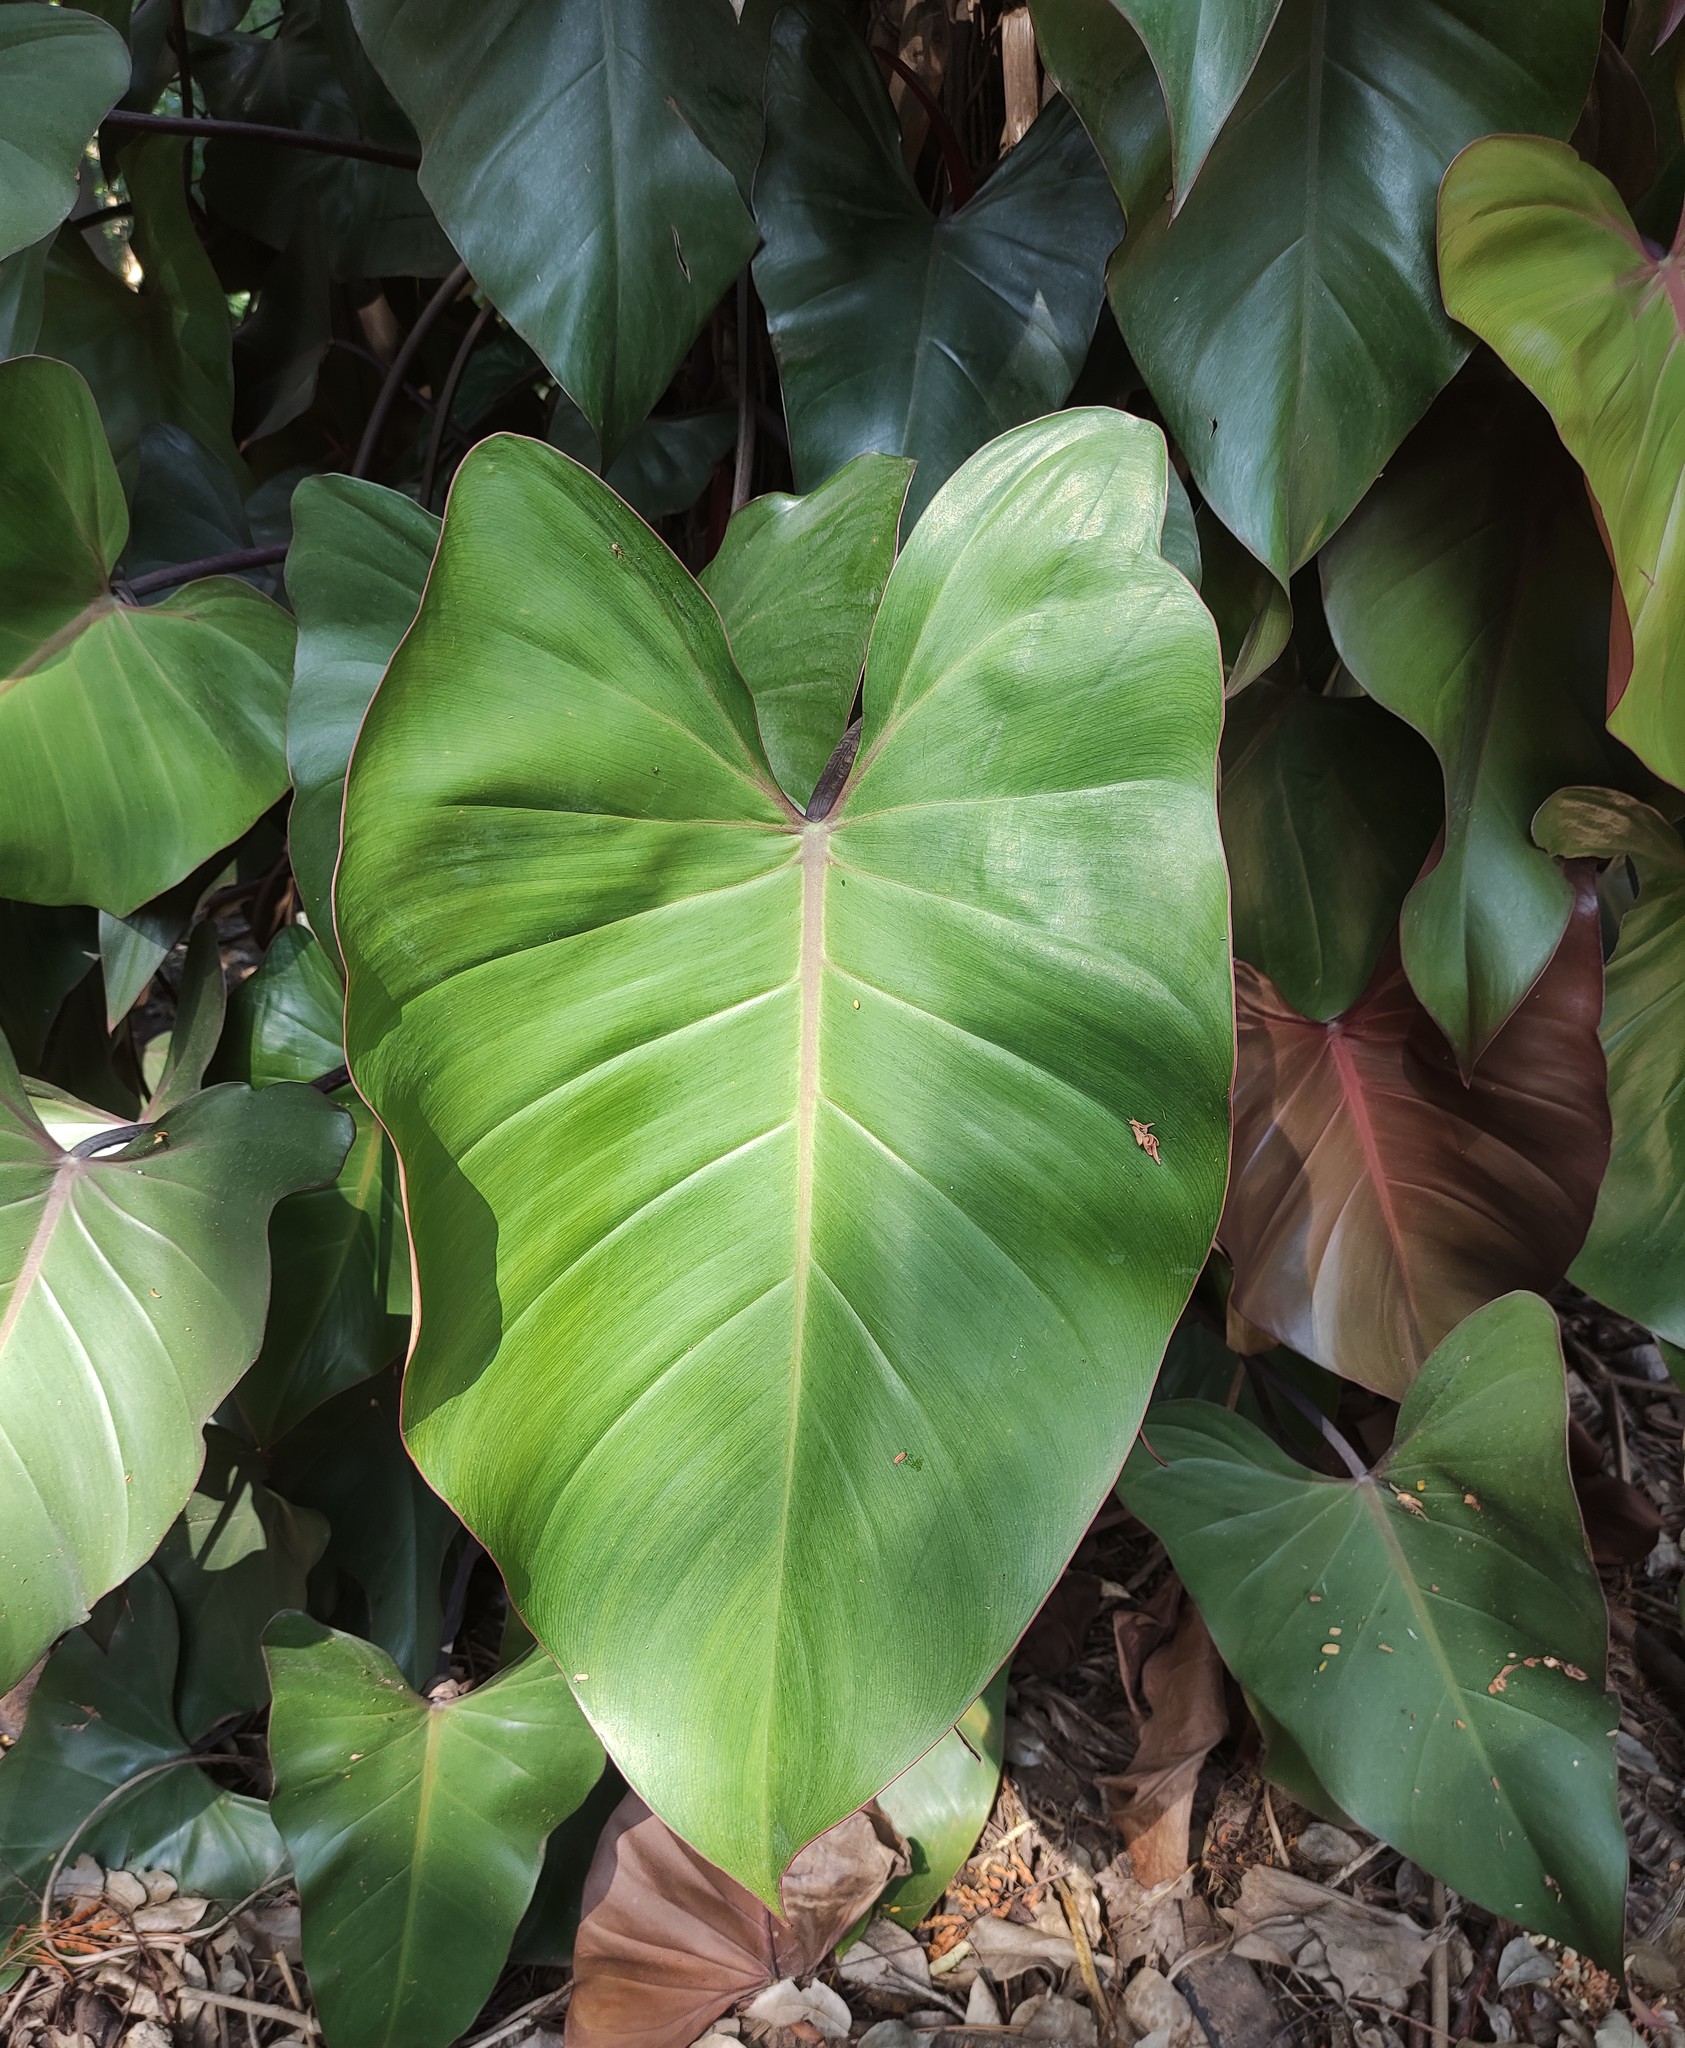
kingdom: Plantae
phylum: Tracheophyta
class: Liliopsida
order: Alismatales
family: Araceae
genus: Philodendron
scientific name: Philodendron erubescens
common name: Philodendron
